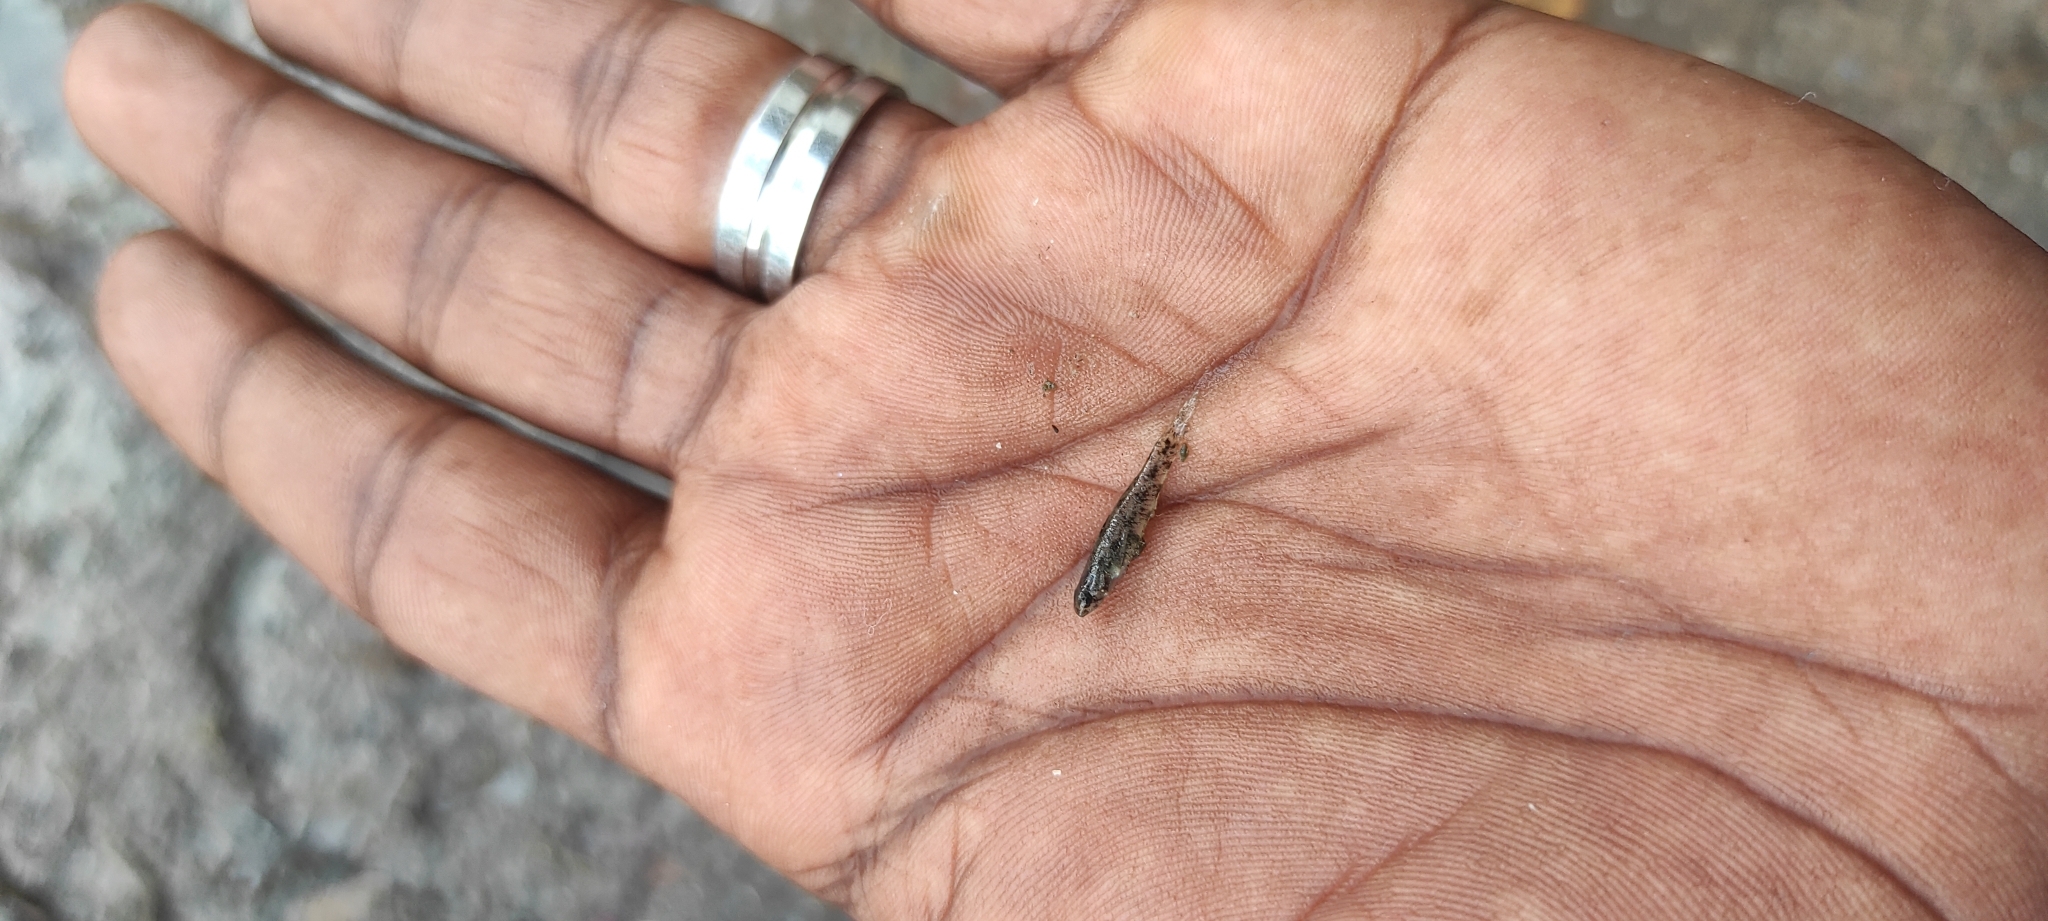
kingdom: Animalia
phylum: Chordata
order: Perciformes
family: Gobiidae
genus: Pseudogobius
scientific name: Pseudogobius melanostictus
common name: Balck-spotted snubnose goby
